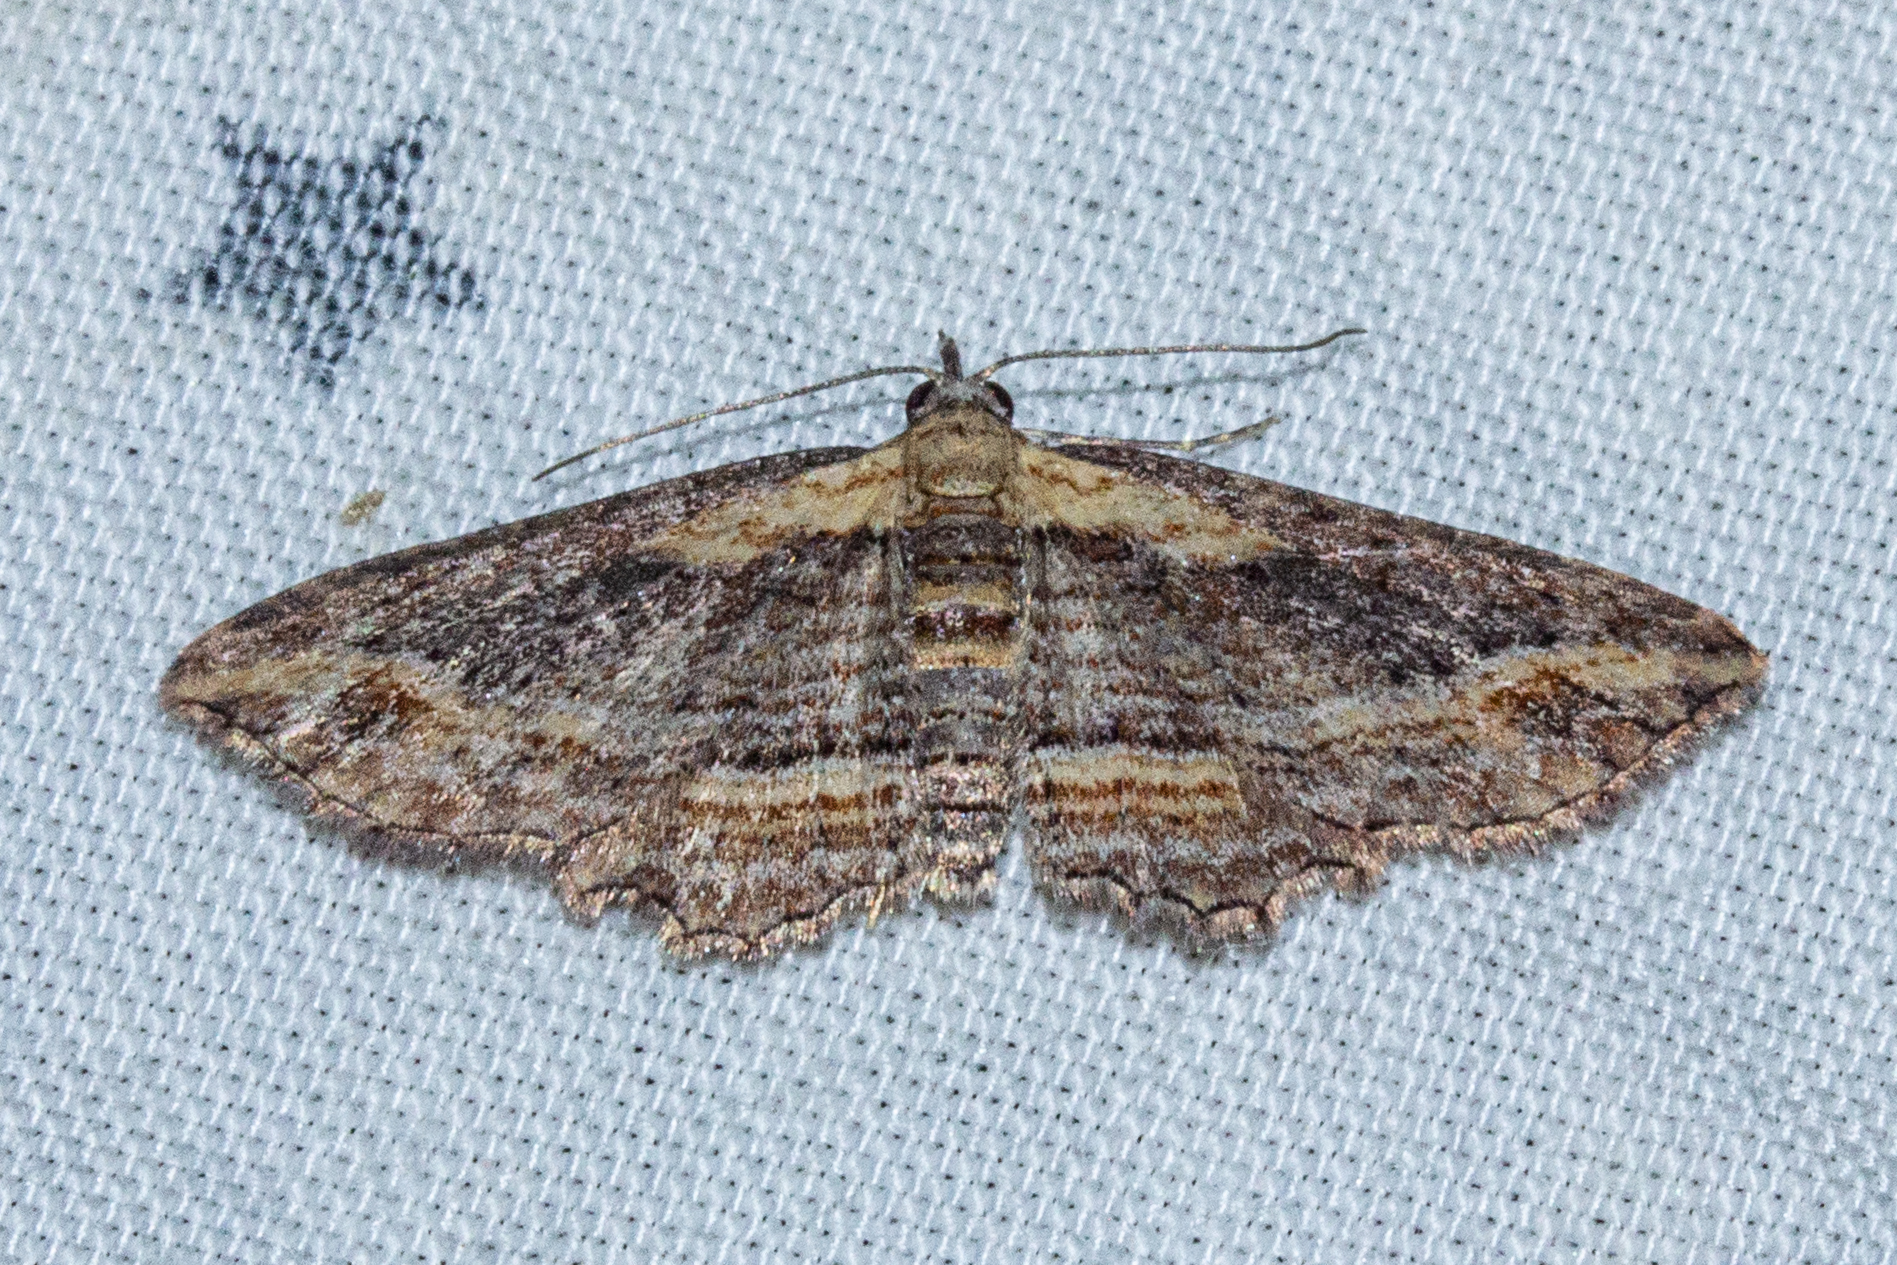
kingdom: Animalia
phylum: Arthropoda
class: Insecta
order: Lepidoptera
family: Geometridae
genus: Chloroclystis
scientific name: Chloroclystis filata
